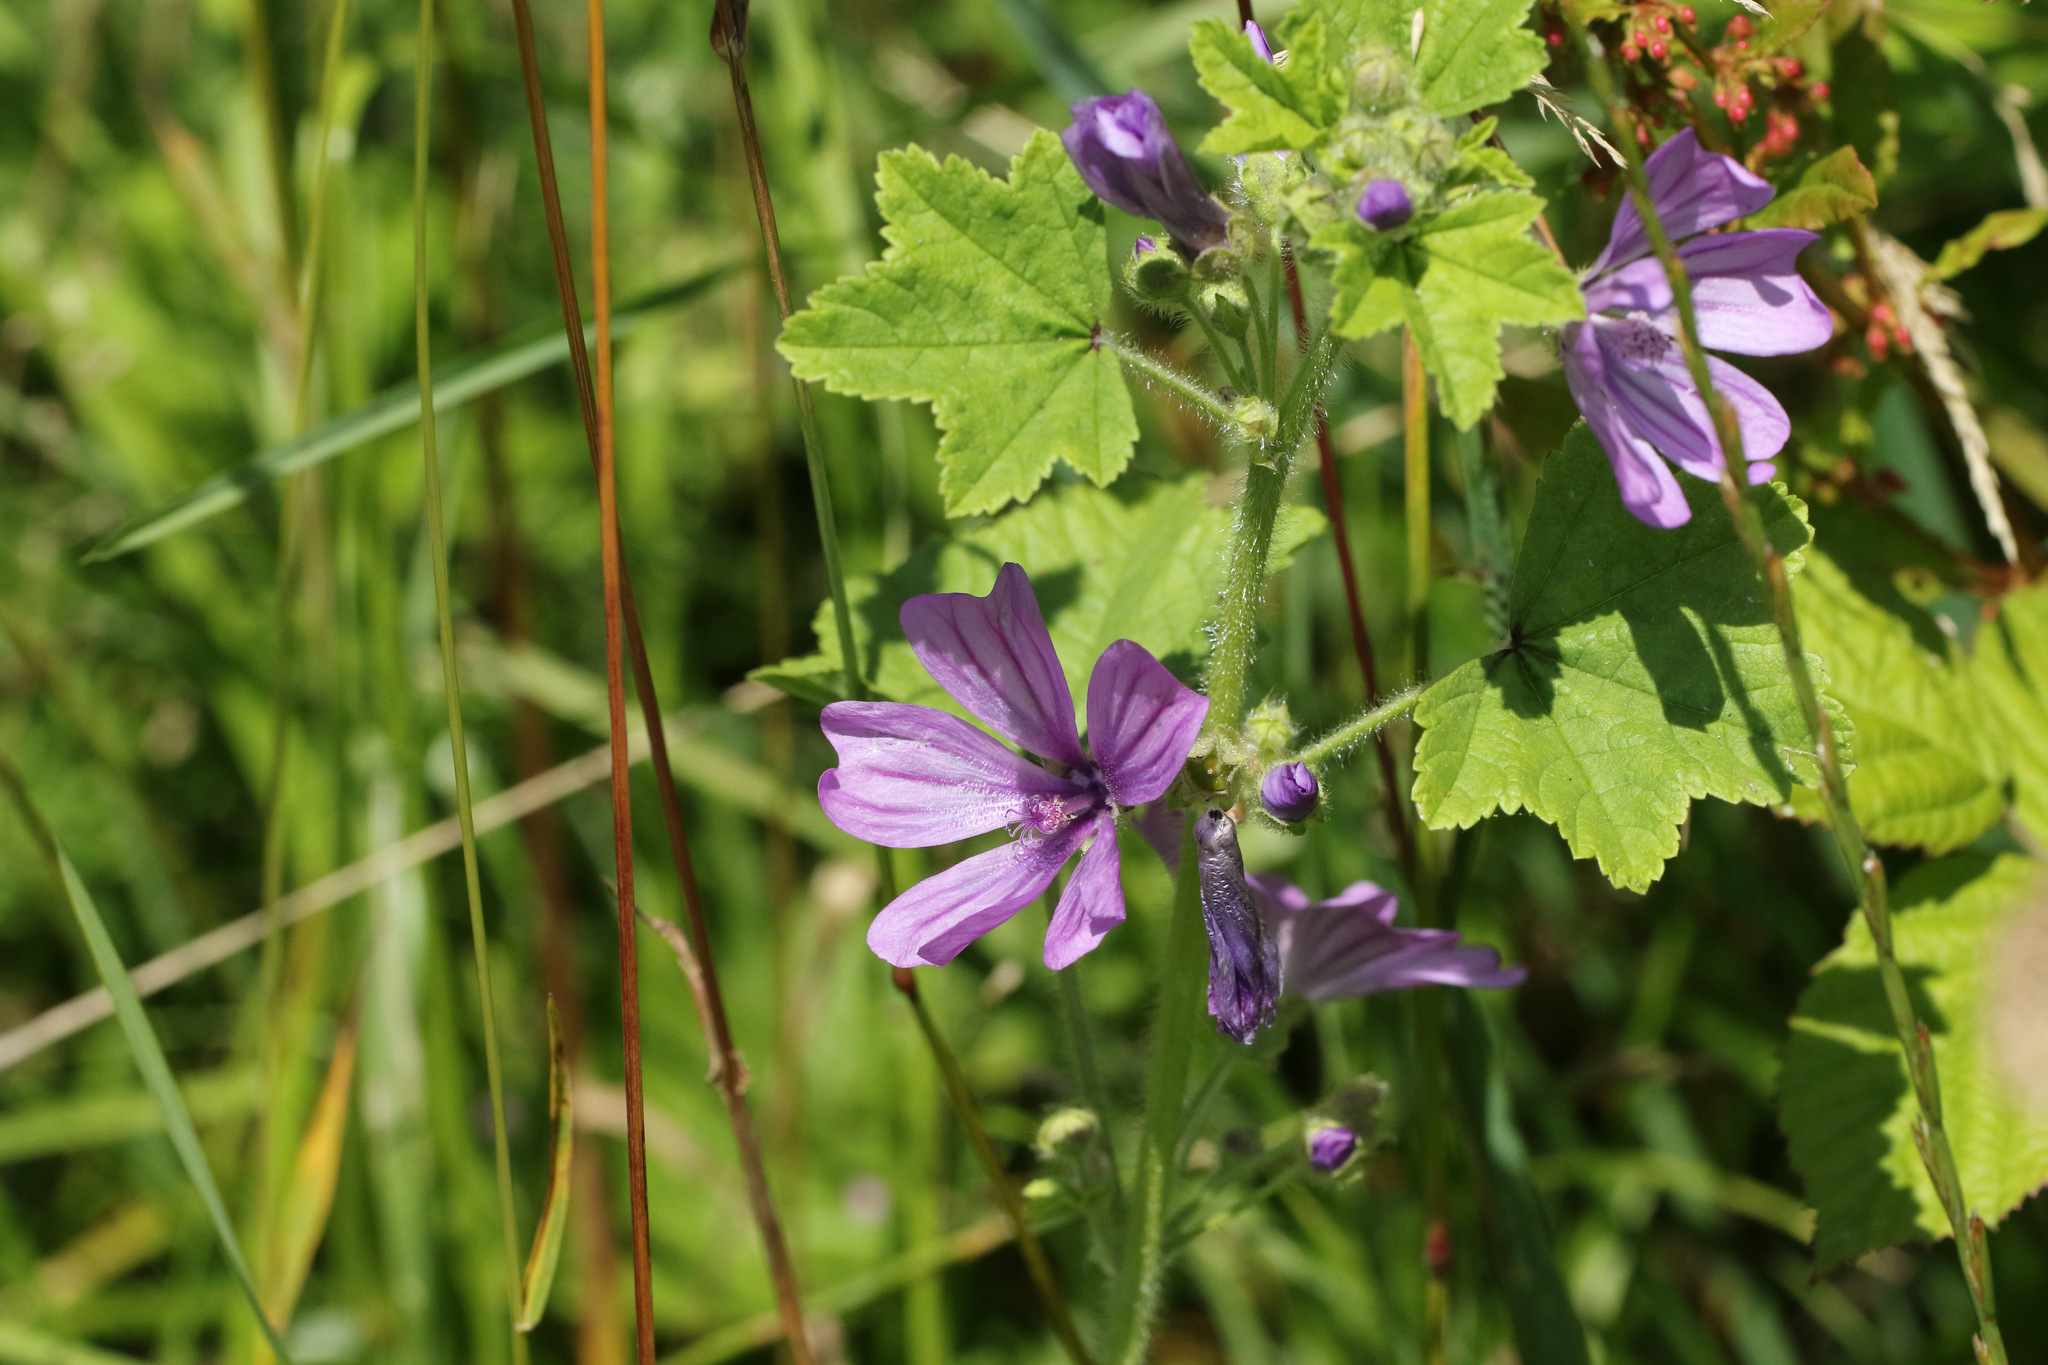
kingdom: Plantae
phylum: Tracheophyta
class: Magnoliopsida
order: Malvales
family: Malvaceae
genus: Malva
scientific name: Malva sylvestris
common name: Common mallow
